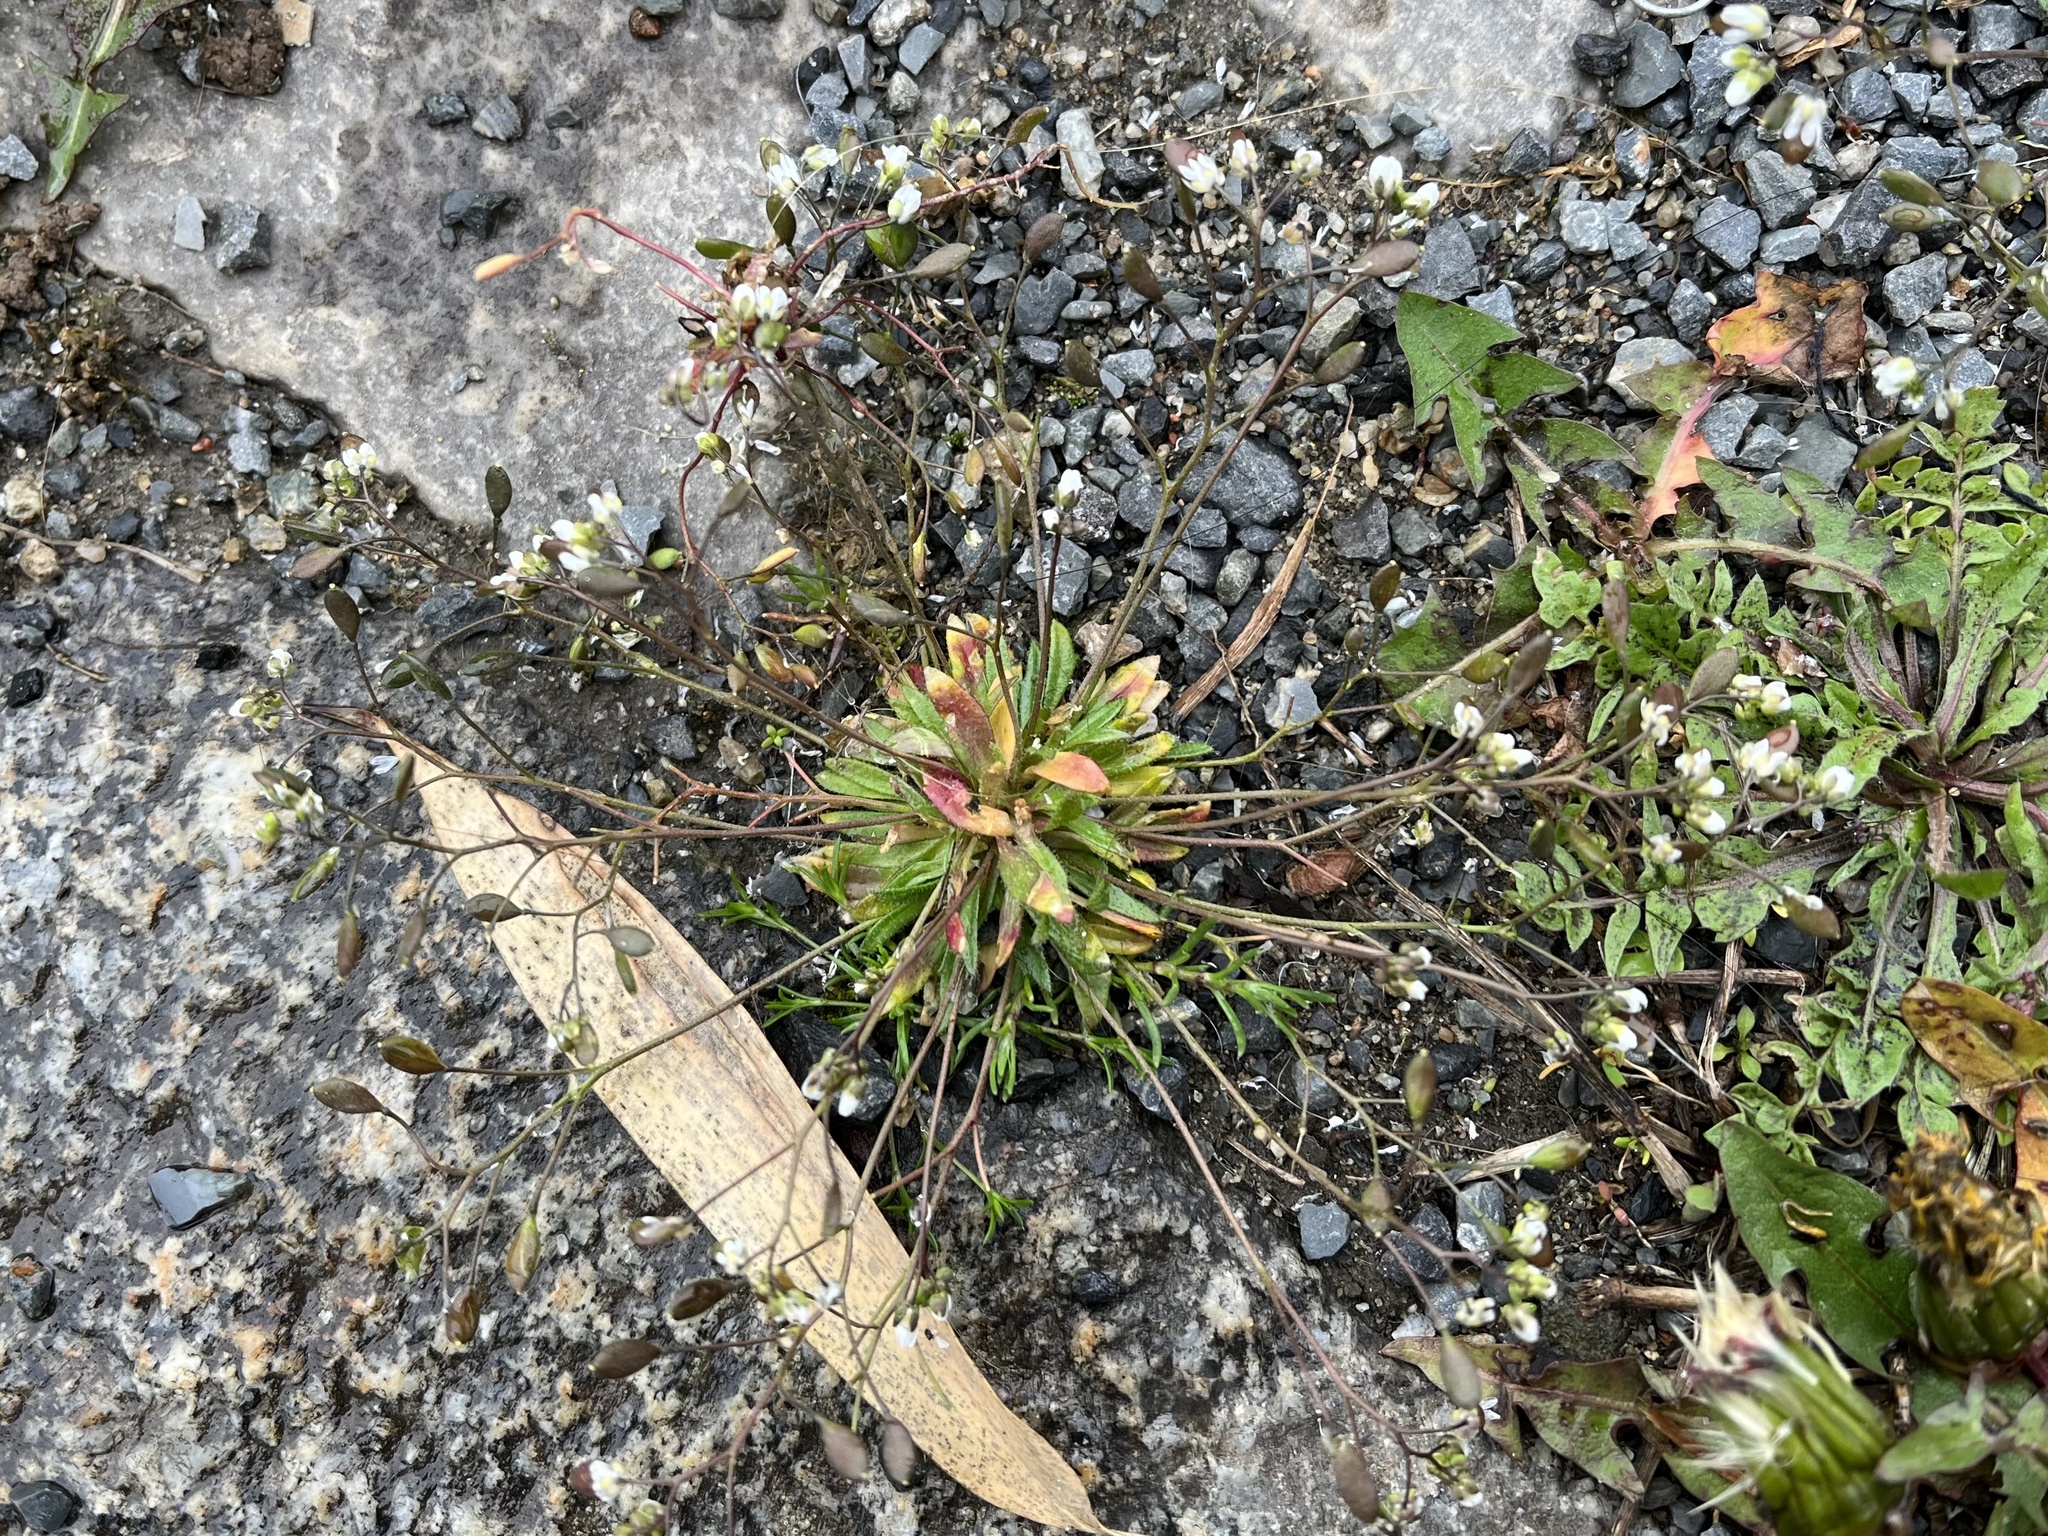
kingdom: Plantae
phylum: Tracheophyta
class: Magnoliopsida
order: Brassicales
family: Brassicaceae
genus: Draba
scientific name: Draba verna
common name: Spring draba
